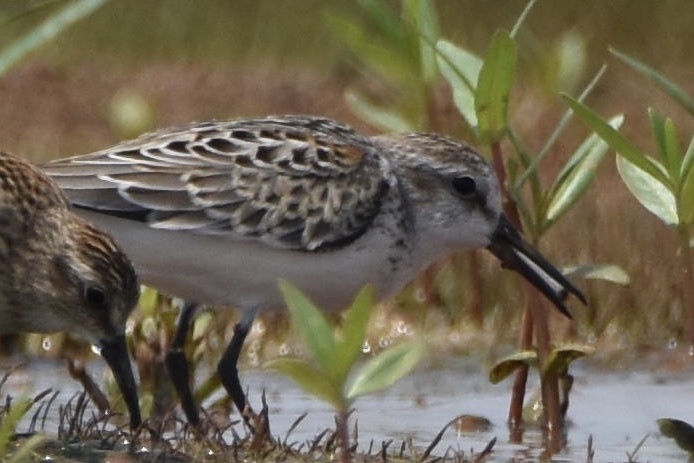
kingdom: Animalia
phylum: Chordata
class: Aves
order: Charadriiformes
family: Scolopacidae
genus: Calidris
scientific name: Calidris mauri
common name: Western sandpiper
